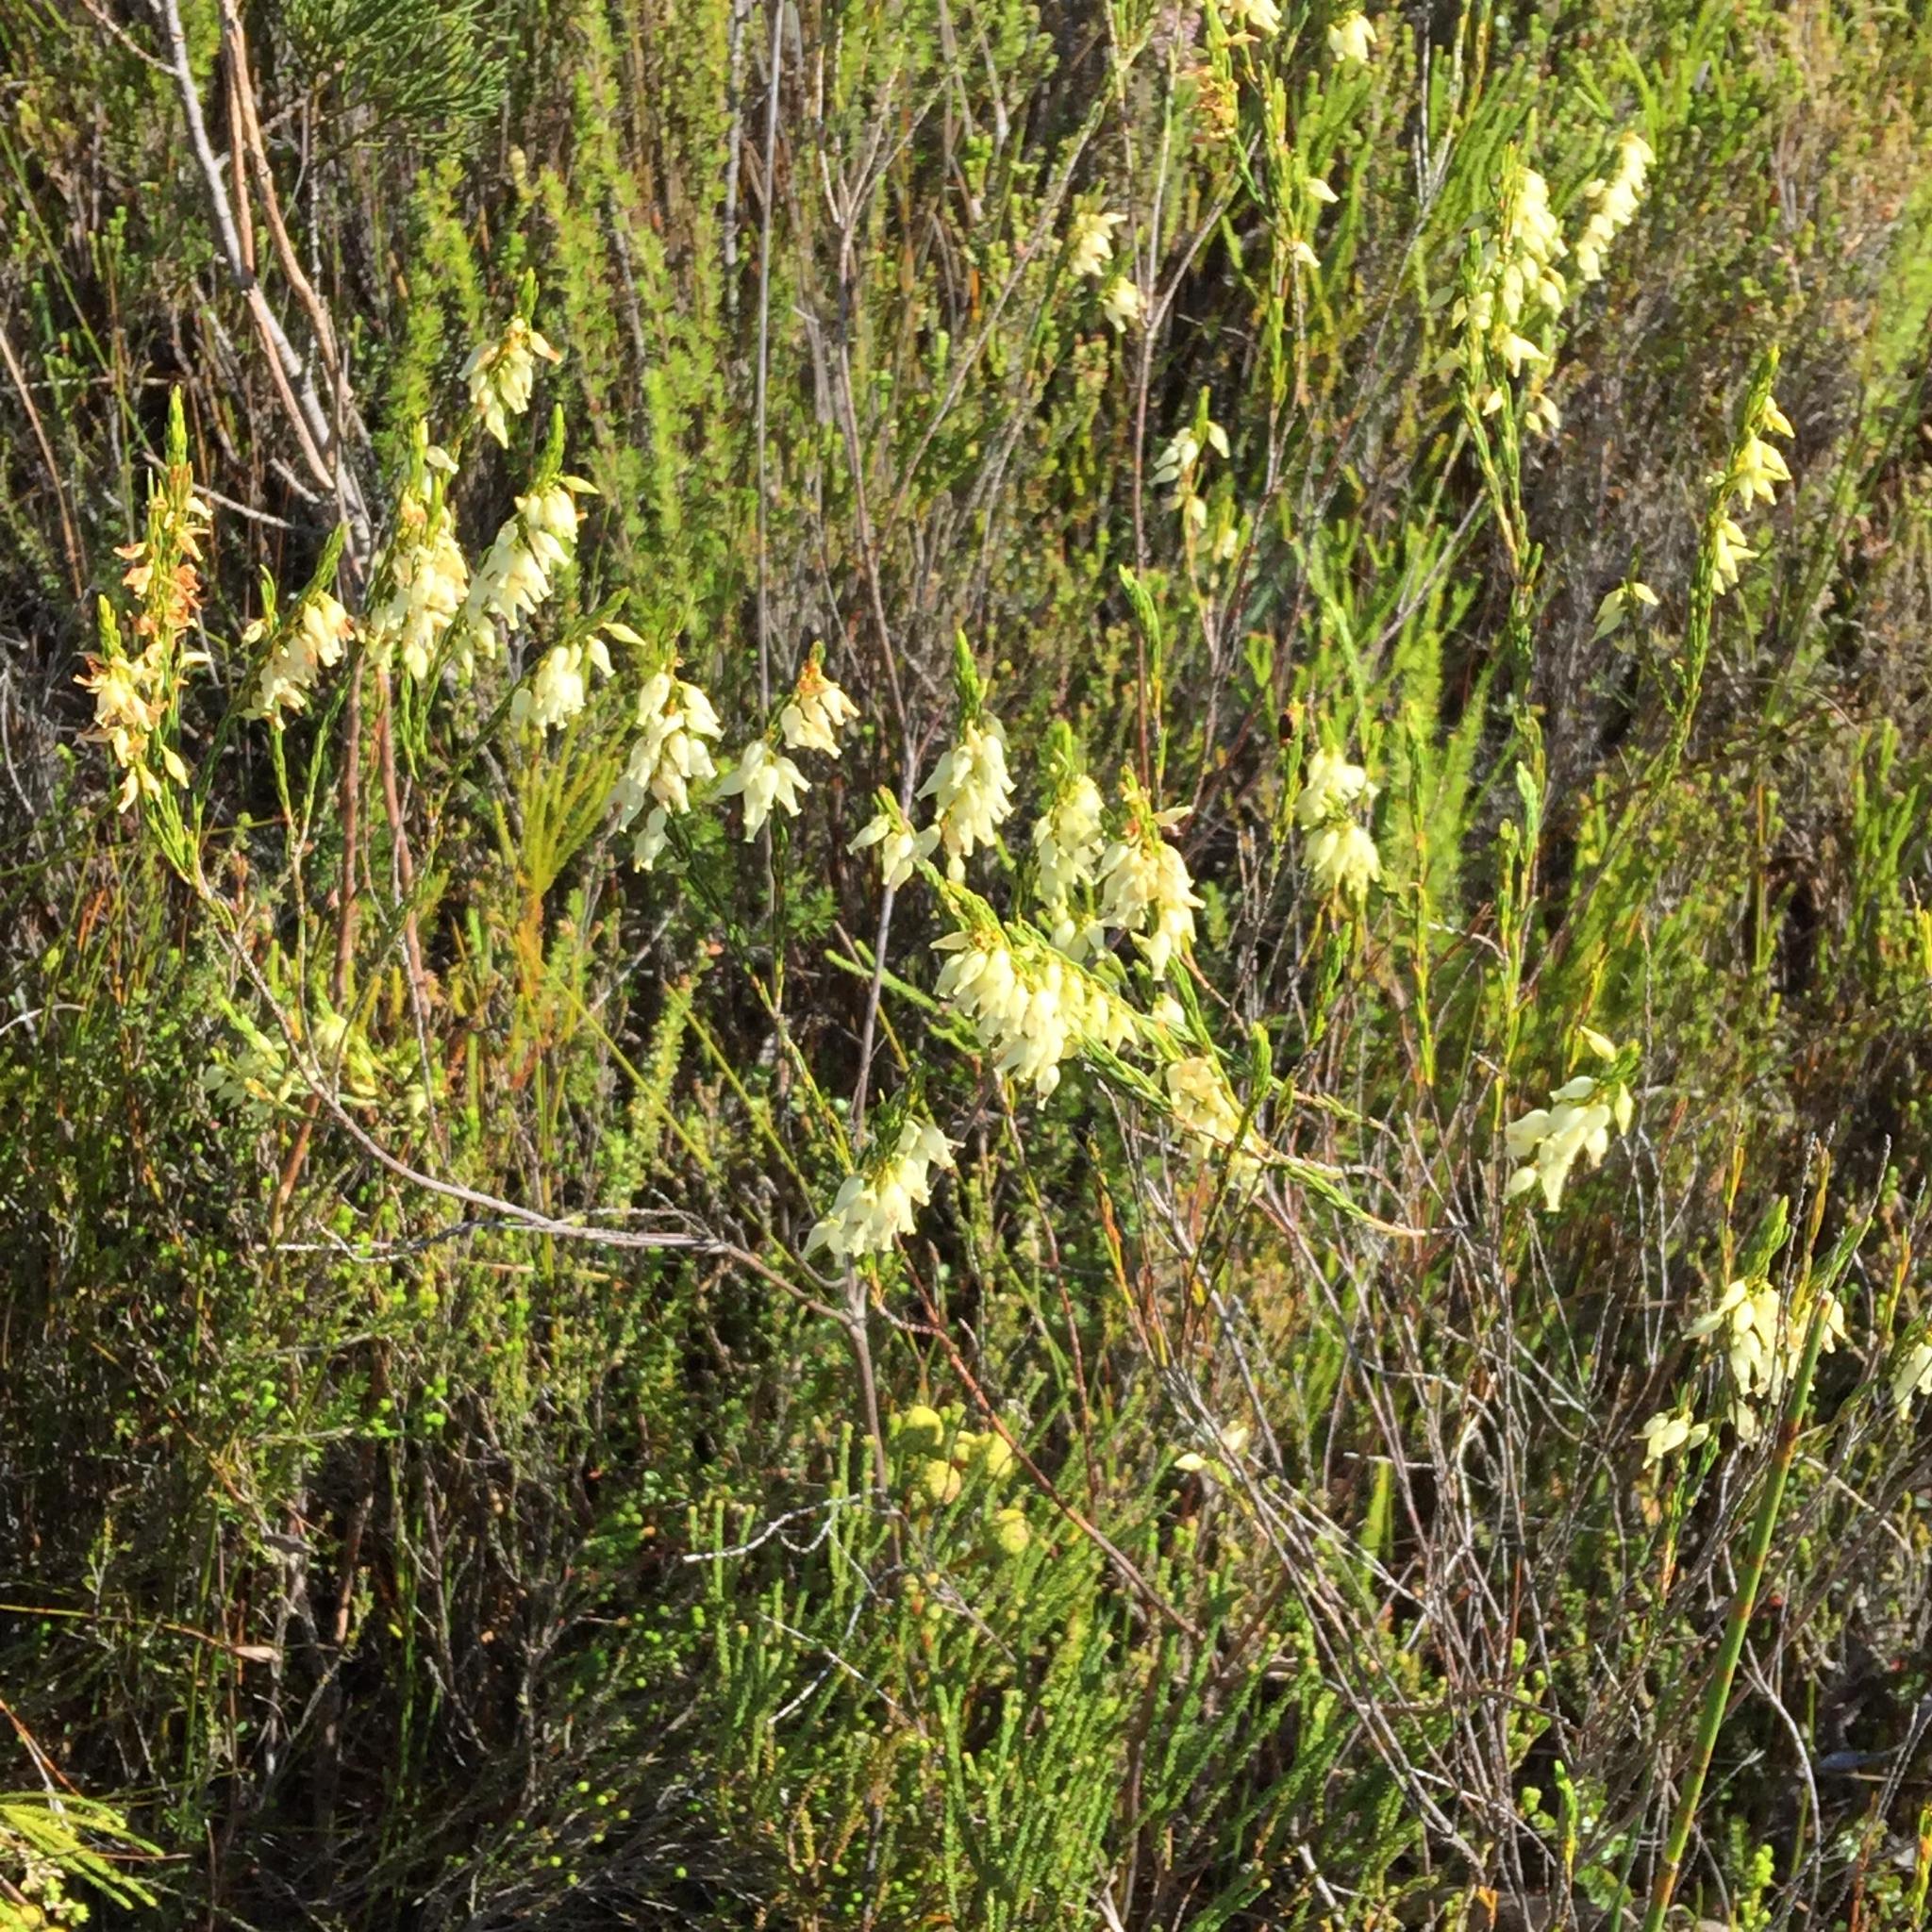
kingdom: Plantae
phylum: Tracheophyta
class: Magnoliopsida
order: Ericales
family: Ericaceae
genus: Erica
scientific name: Erica albens
